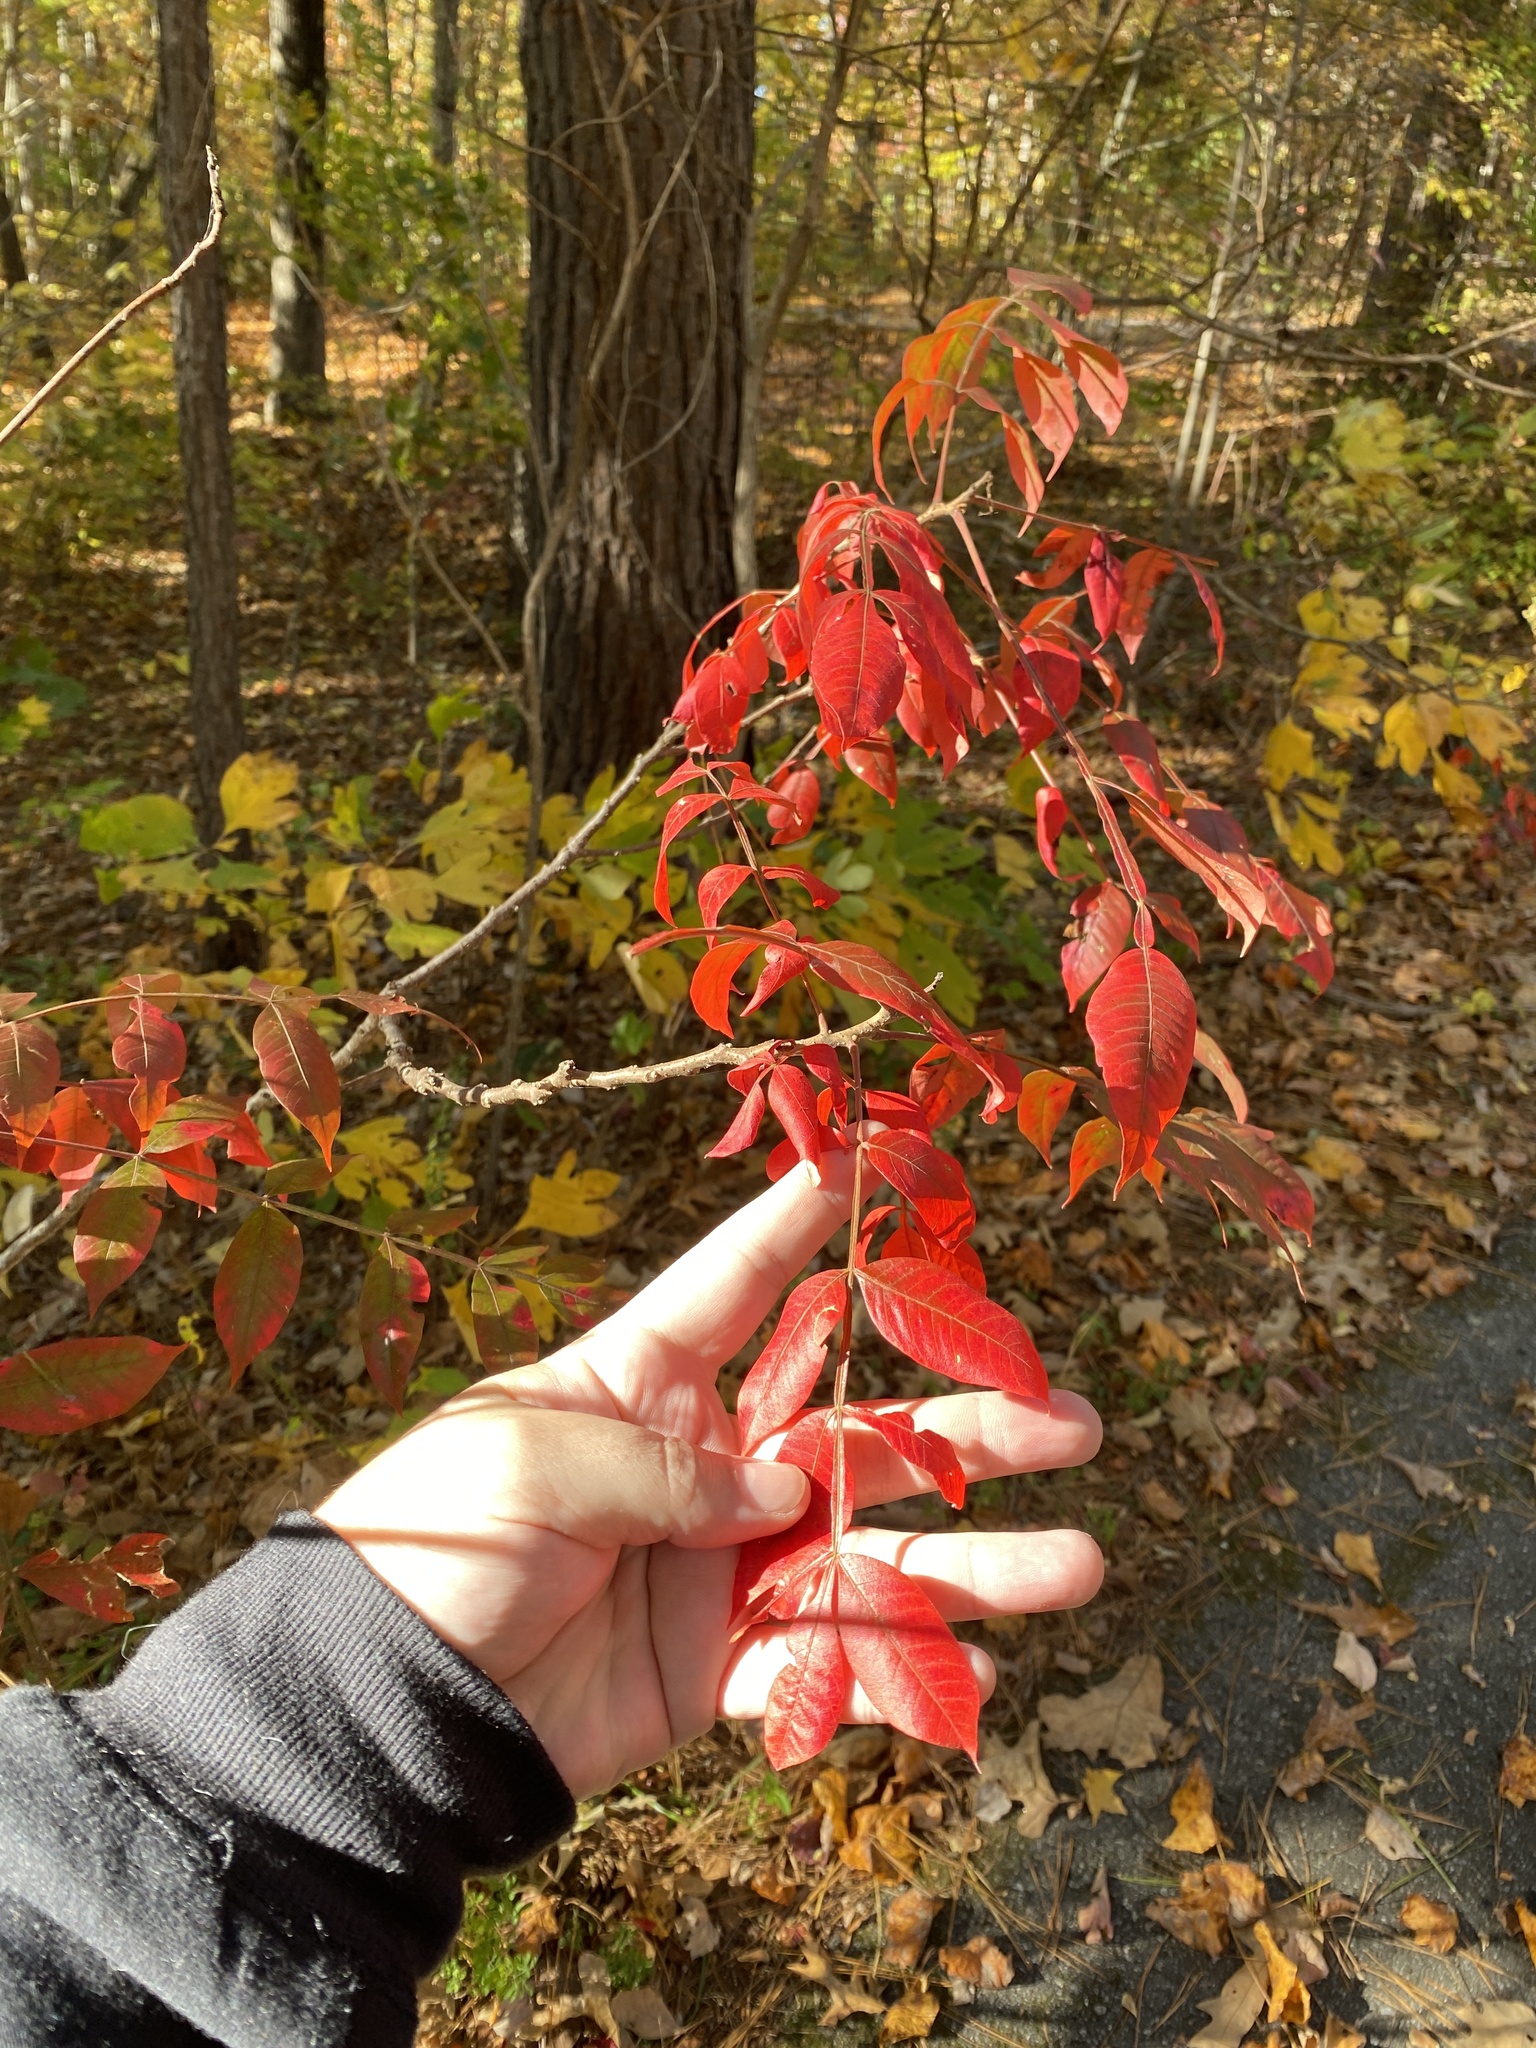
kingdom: Plantae
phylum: Tracheophyta
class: Magnoliopsida
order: Sapindales
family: Anacardiaceae
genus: Rhus
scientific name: Rhus copallina
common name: Shining sumac
